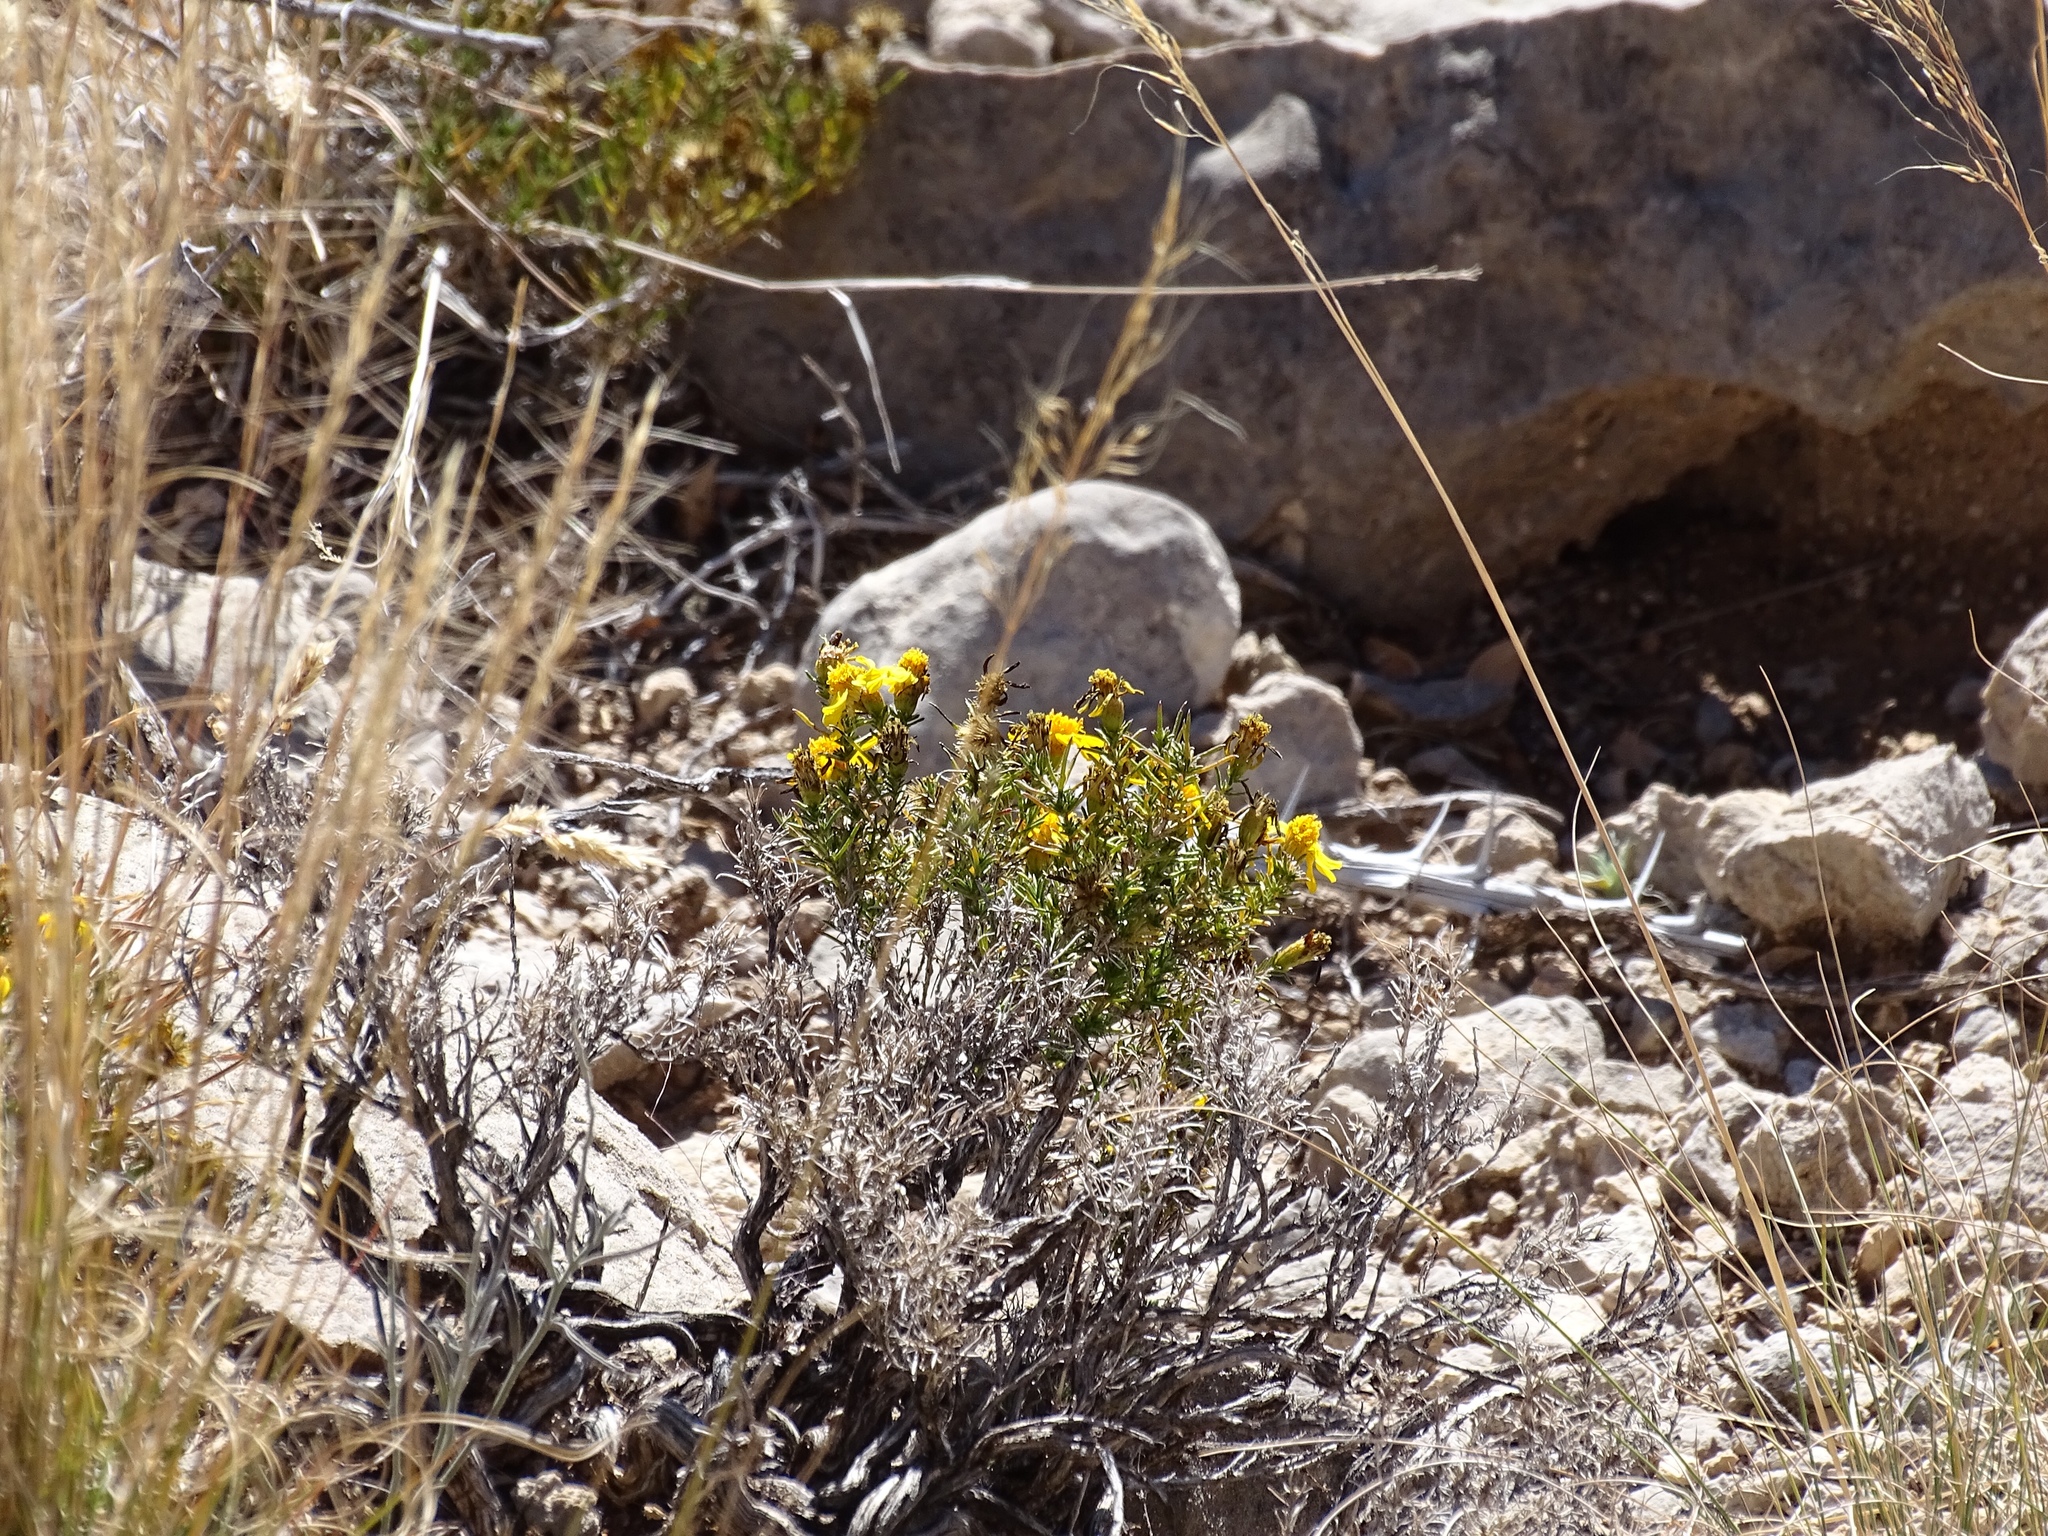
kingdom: Plantae
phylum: Tracheophyta
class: Magnoliopsida
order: Asterales
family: Asteraceae
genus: Thymophylla
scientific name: Thymophylla acerosa
